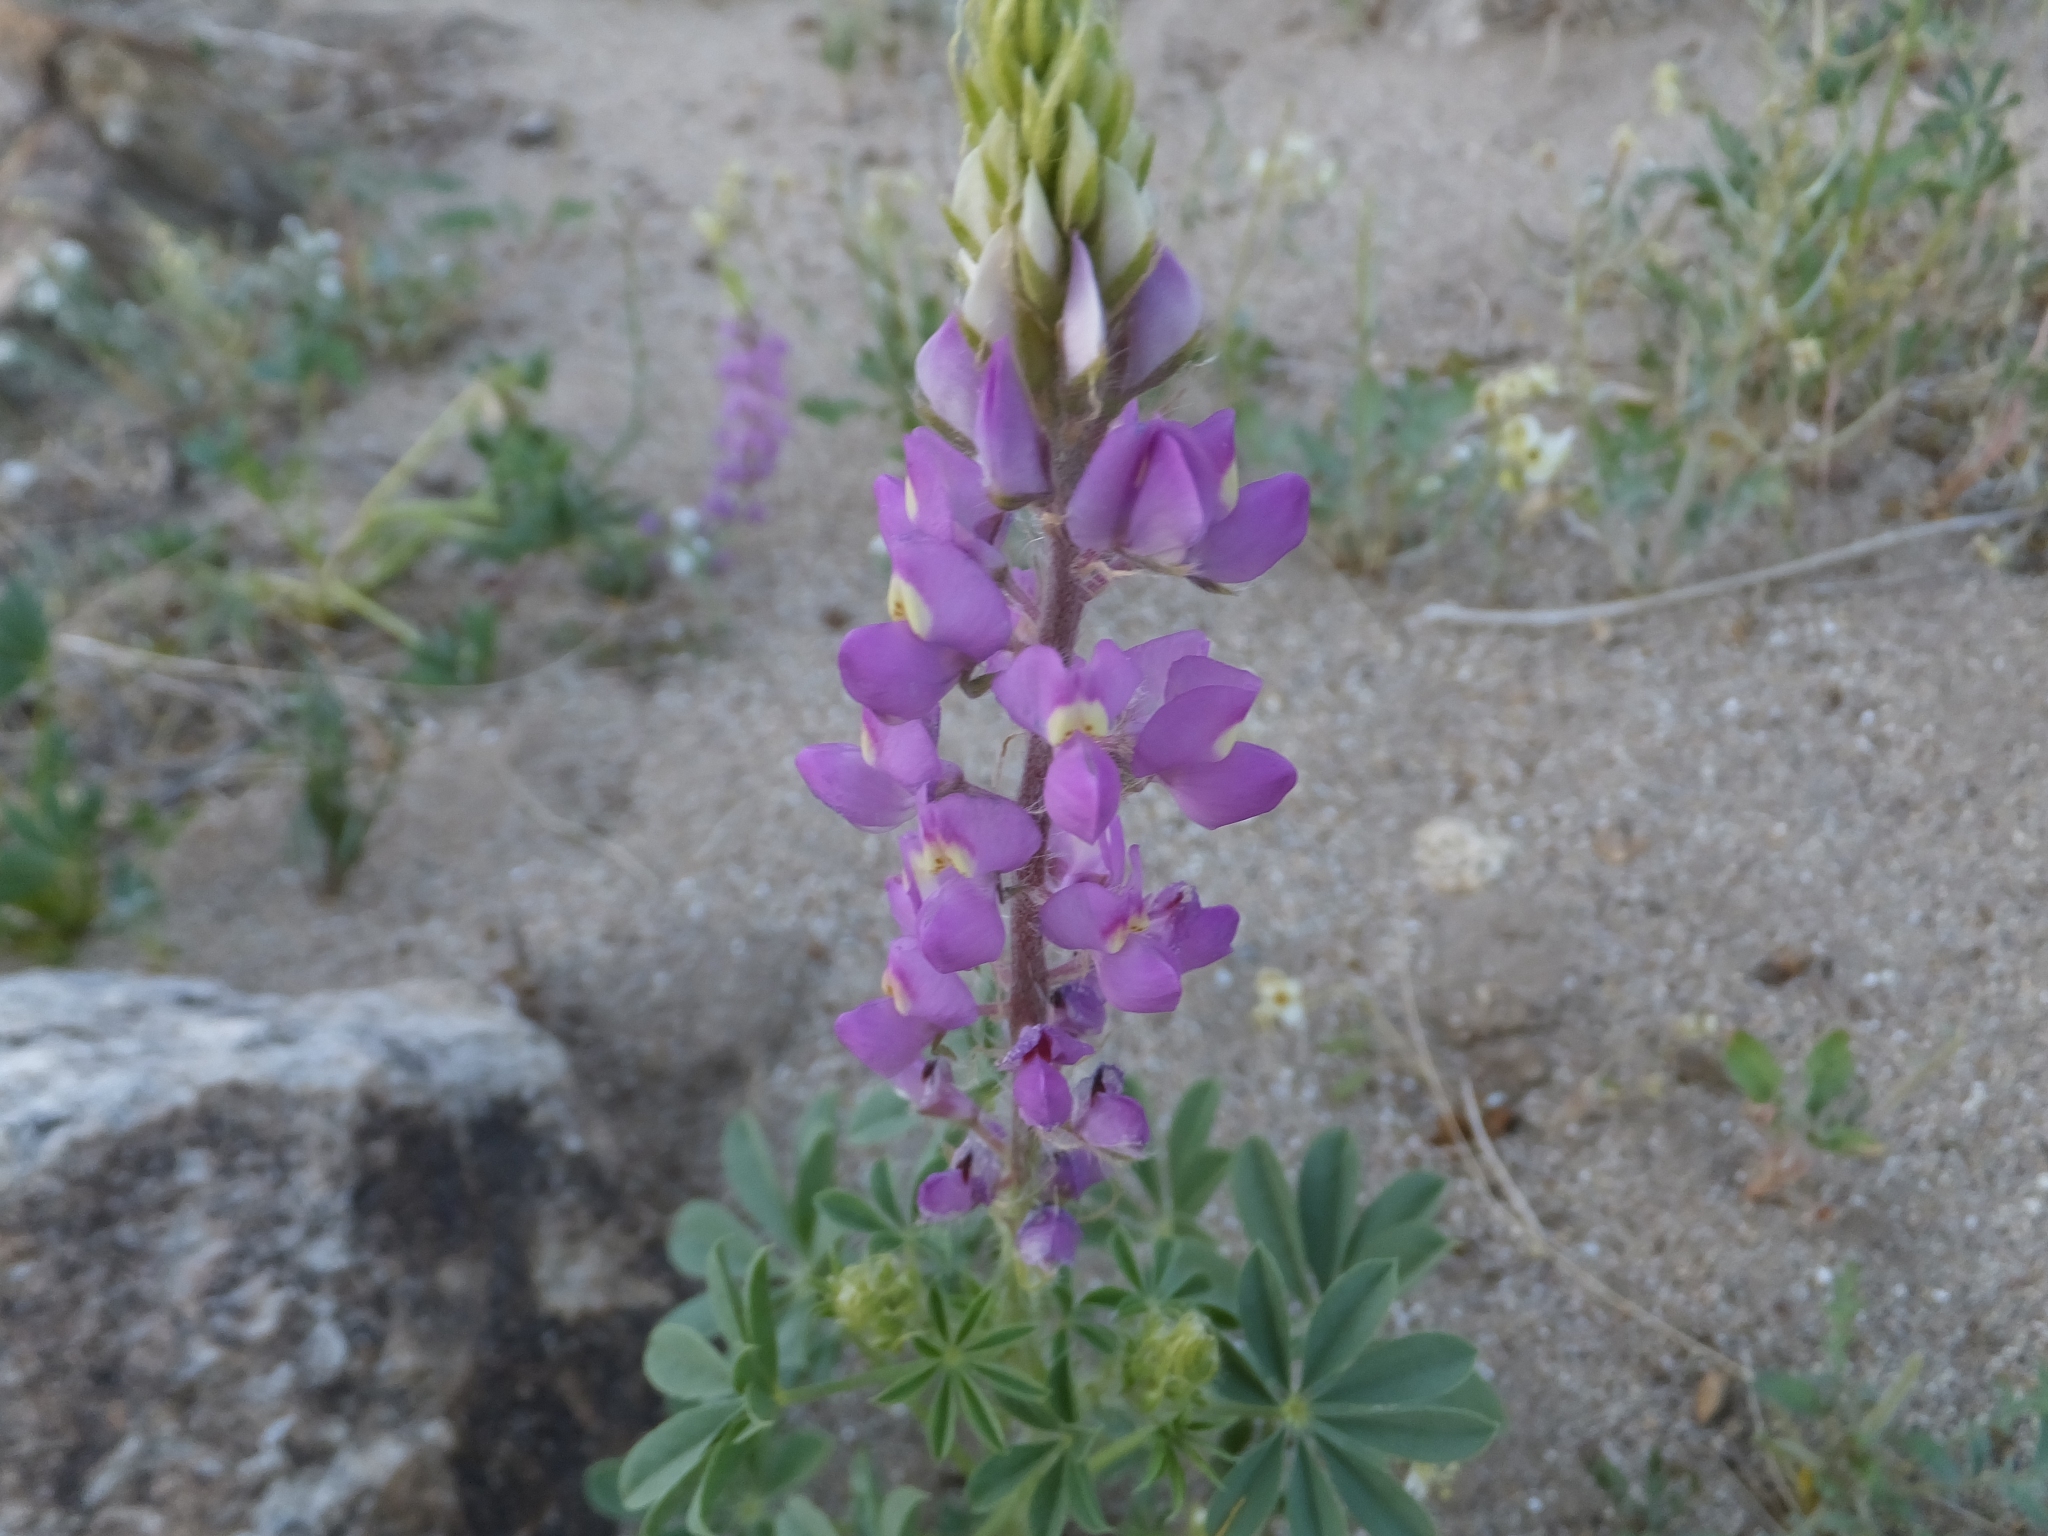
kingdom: Plantae
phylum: Tracheophyta
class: Magnoliopsida
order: Fabales
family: Fabaceae
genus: Lupinus
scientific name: Lupinus arizonicus
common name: Arizona lupine
